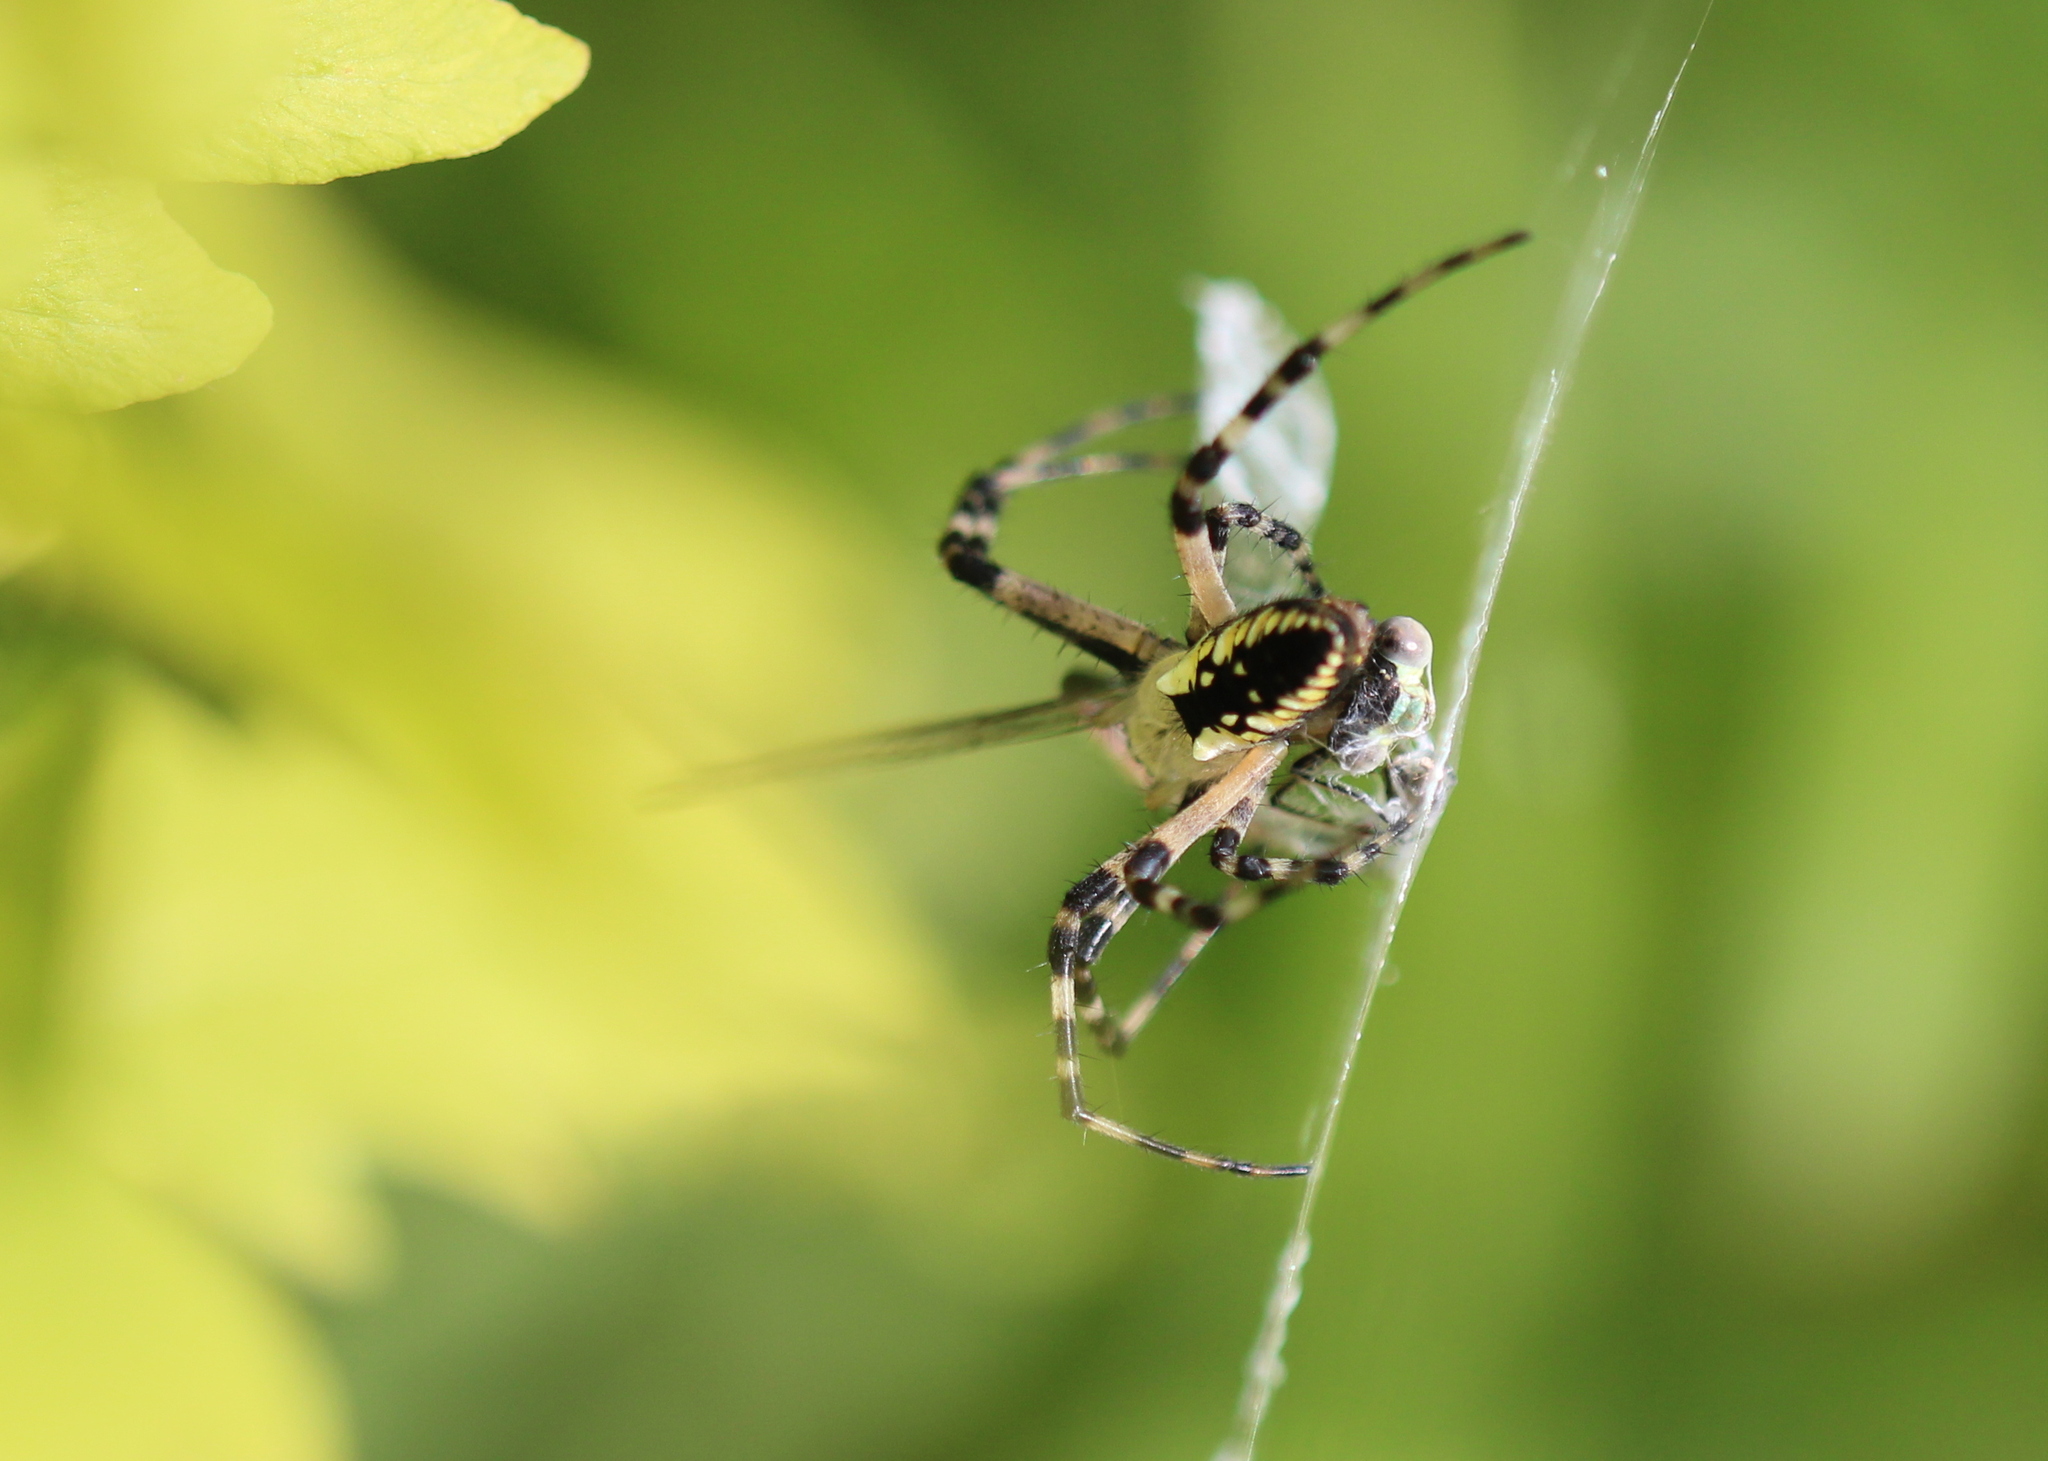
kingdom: Animalia
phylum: Arthropoda
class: Arachnida
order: Araneae
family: Araneidae
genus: Argiope
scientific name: Argiope aurantia
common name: Orb weavers
